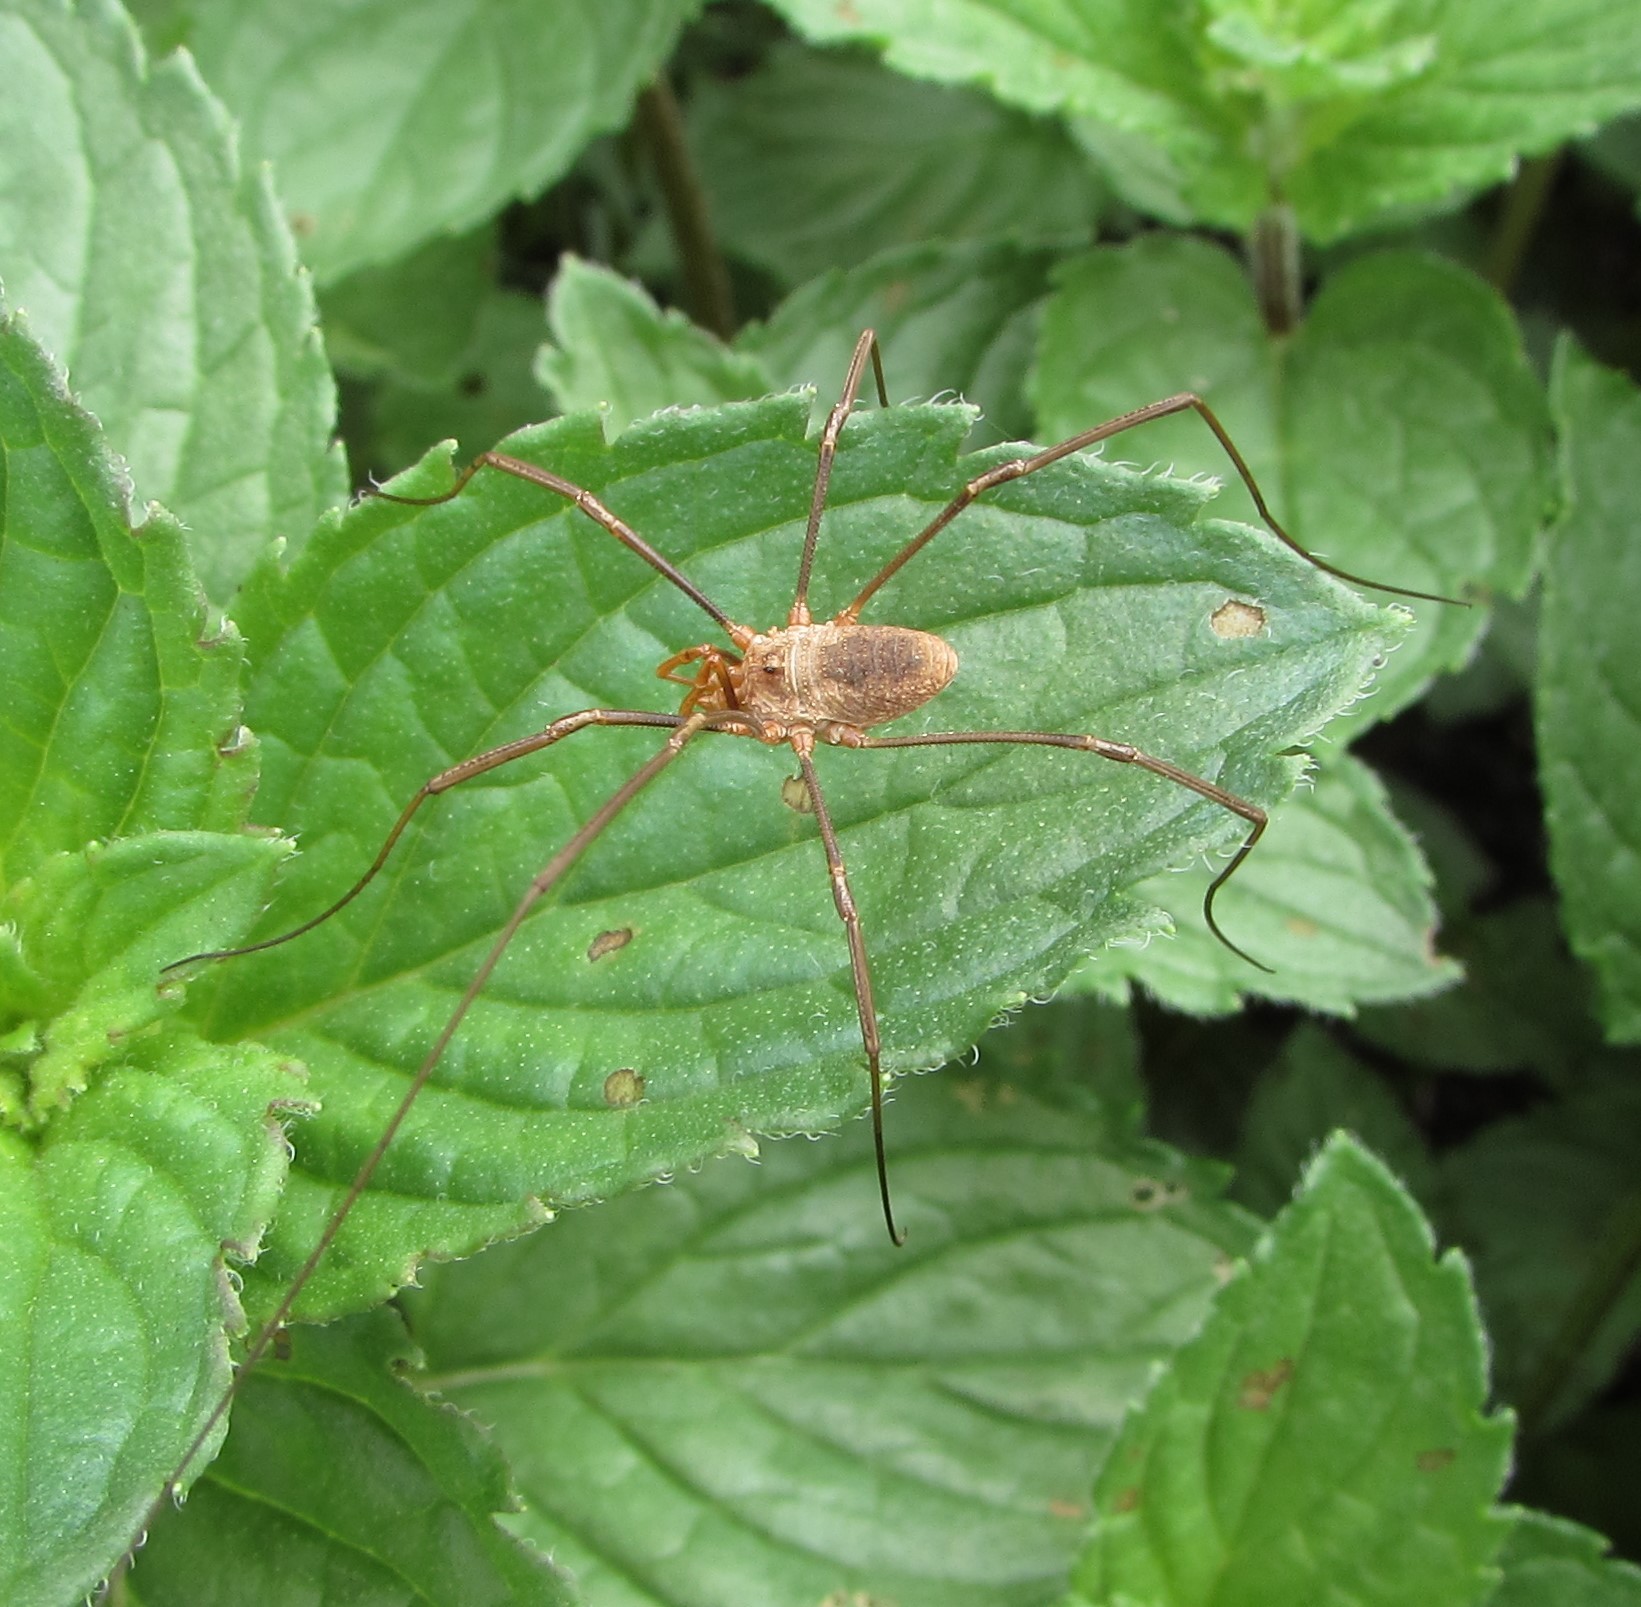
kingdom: Animalia
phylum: Arthropoda
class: Arachnida
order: Opiliones
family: Phalangiidae
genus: Phalangium
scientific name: Phalangium opilio
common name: Daddy longleg
